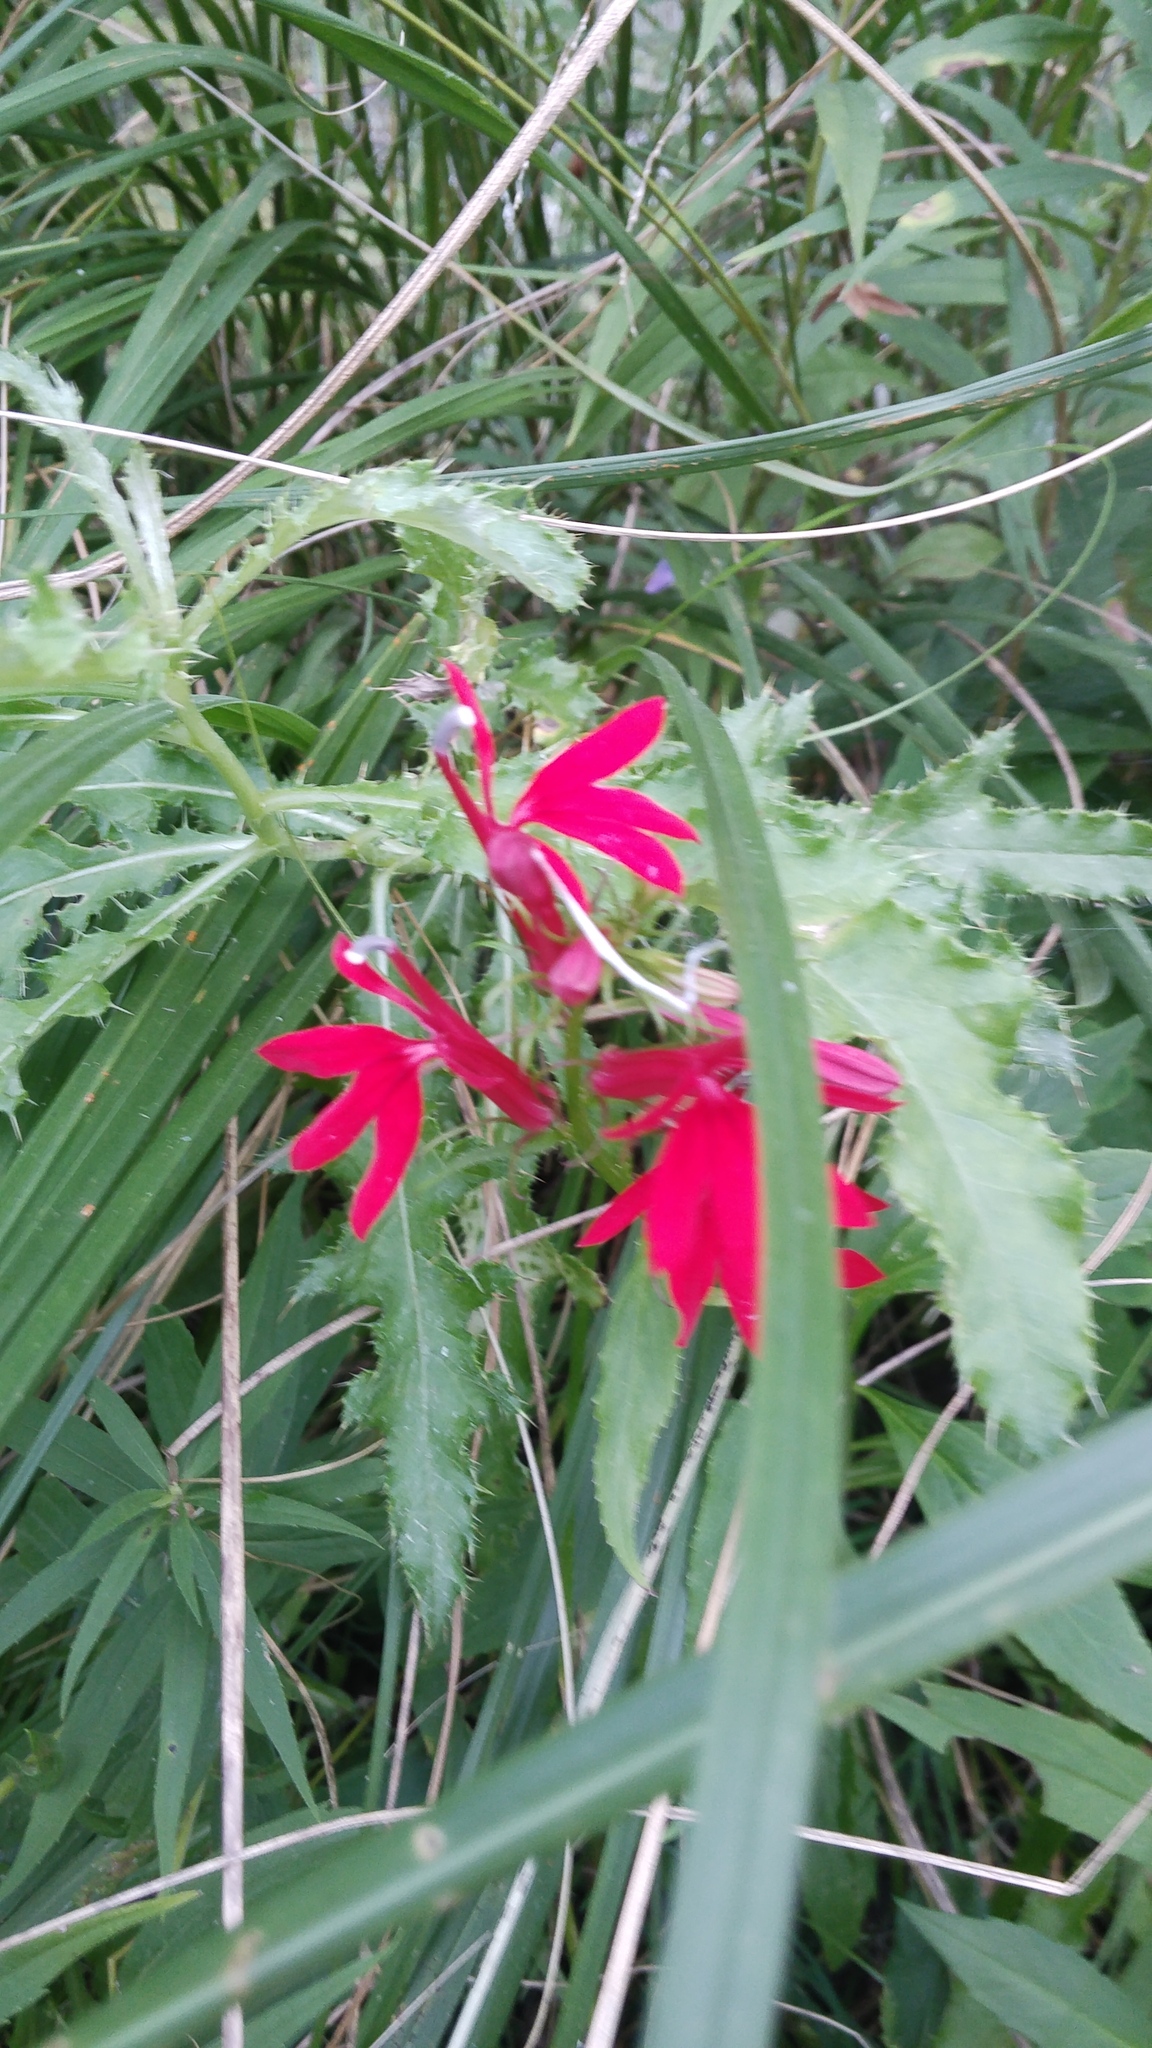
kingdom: Plantae
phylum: Tracheophyta
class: Magnoliopsida
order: Asterales
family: Campanulaceae
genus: Lobelia
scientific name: Lobelia cardinalis
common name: Cardinal flower
